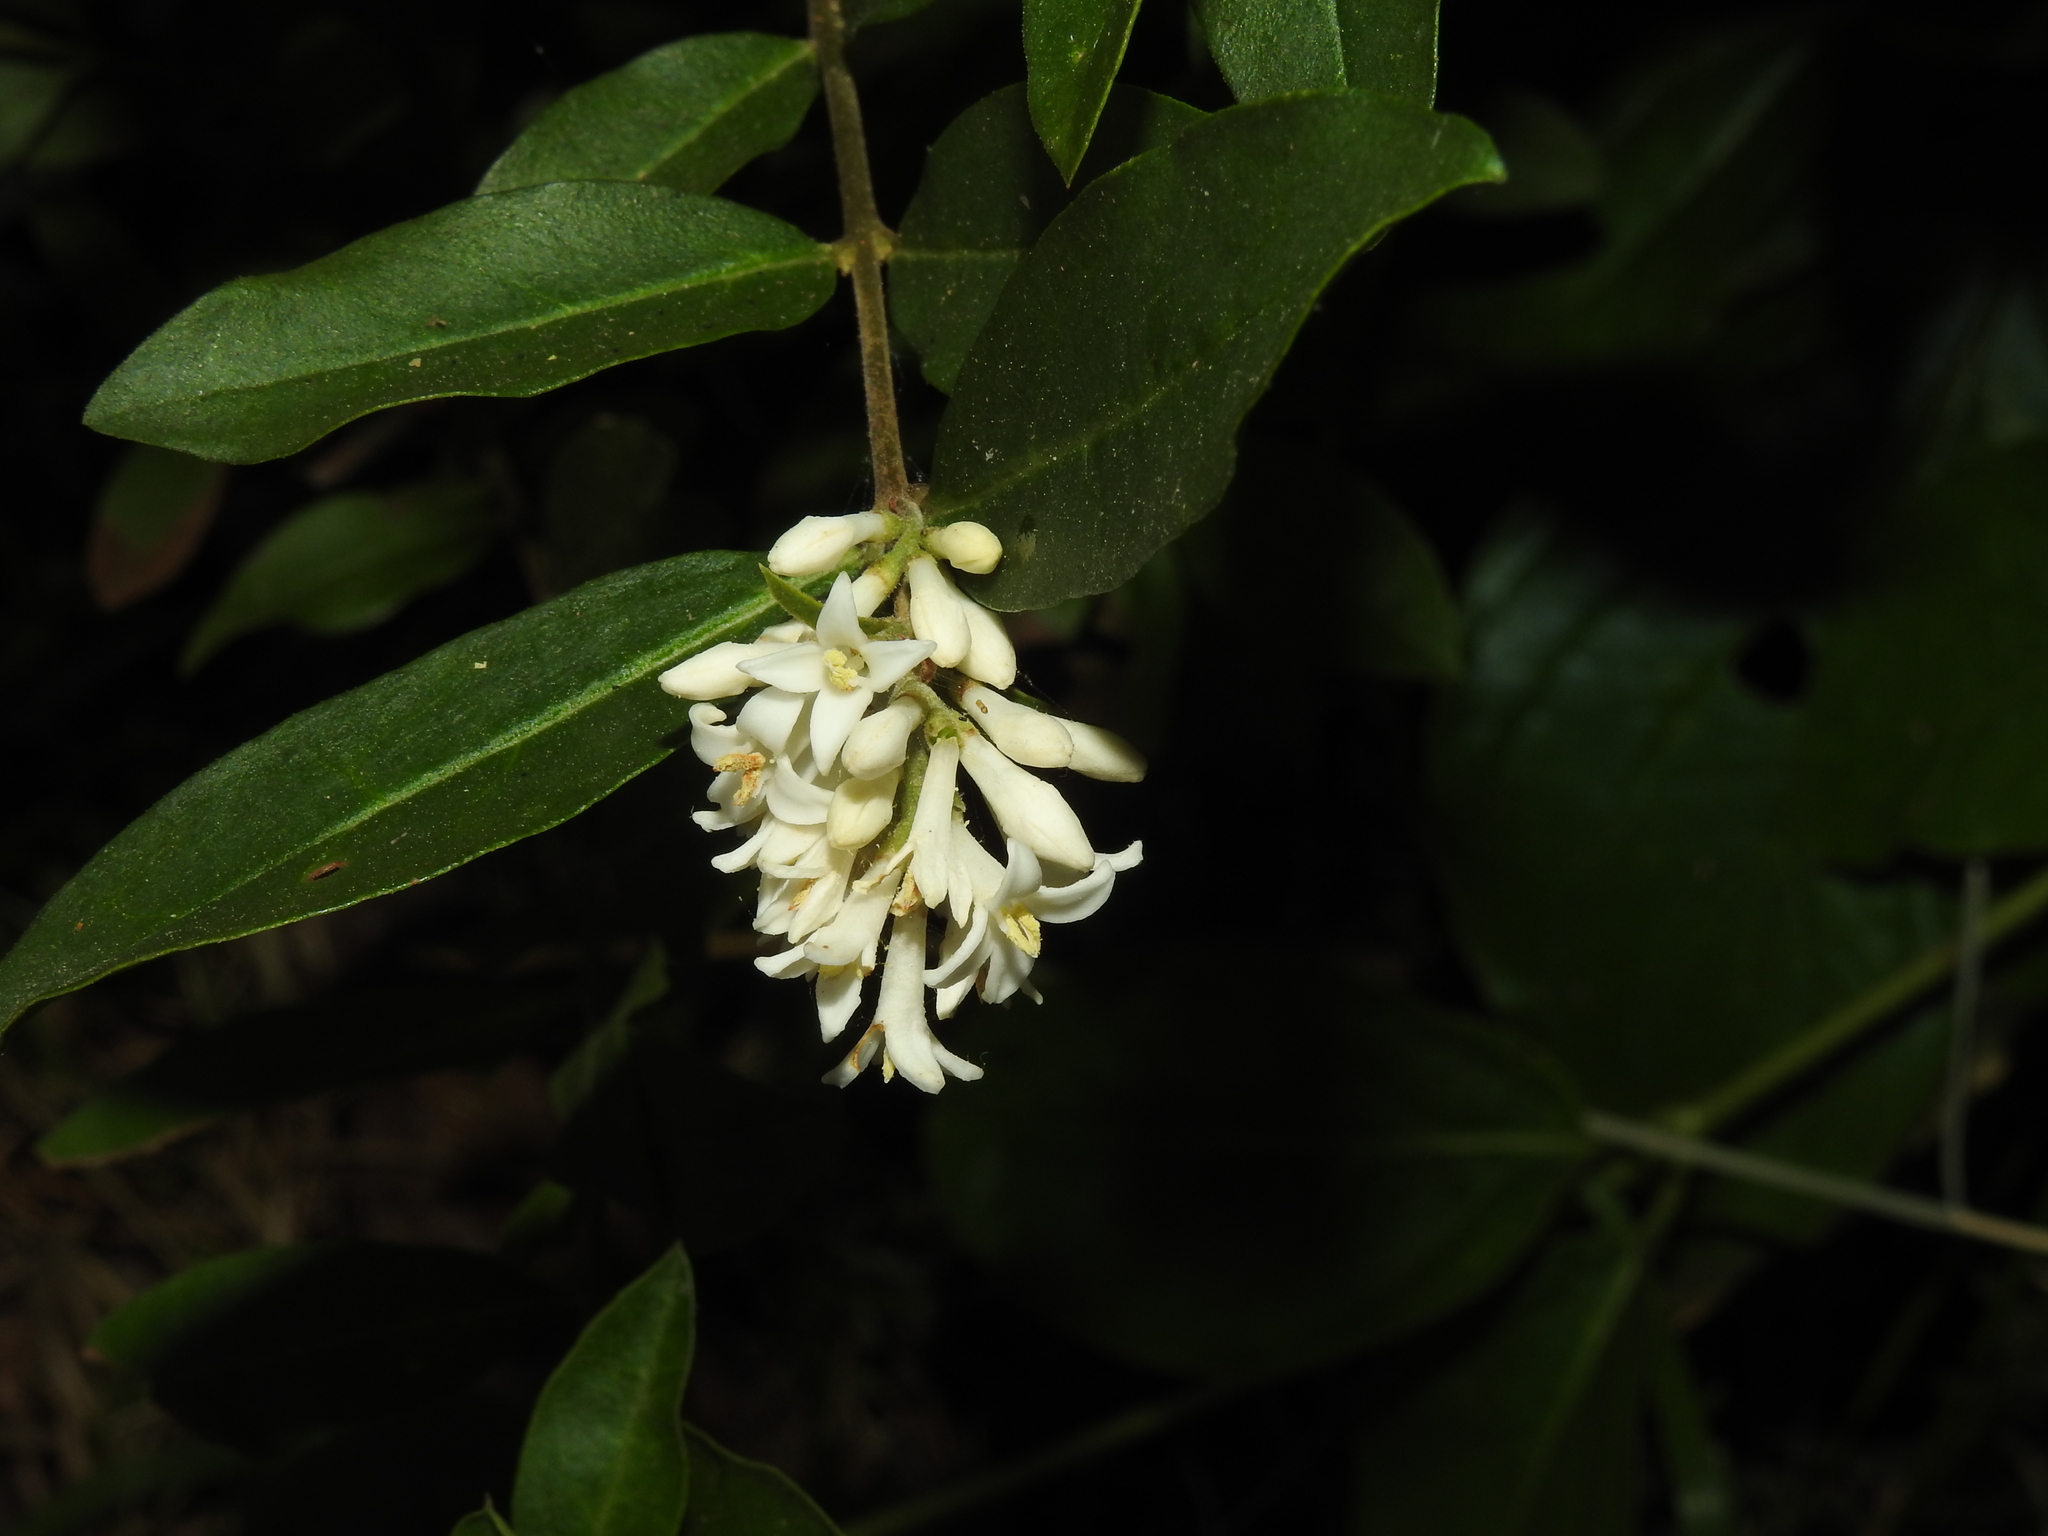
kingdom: Plantae
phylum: Tracheophyta
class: Magnoliopsida
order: Lamiales
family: Oleaceae
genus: Ligustrum
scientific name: Ligustrum obtusifolium
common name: Border privet
